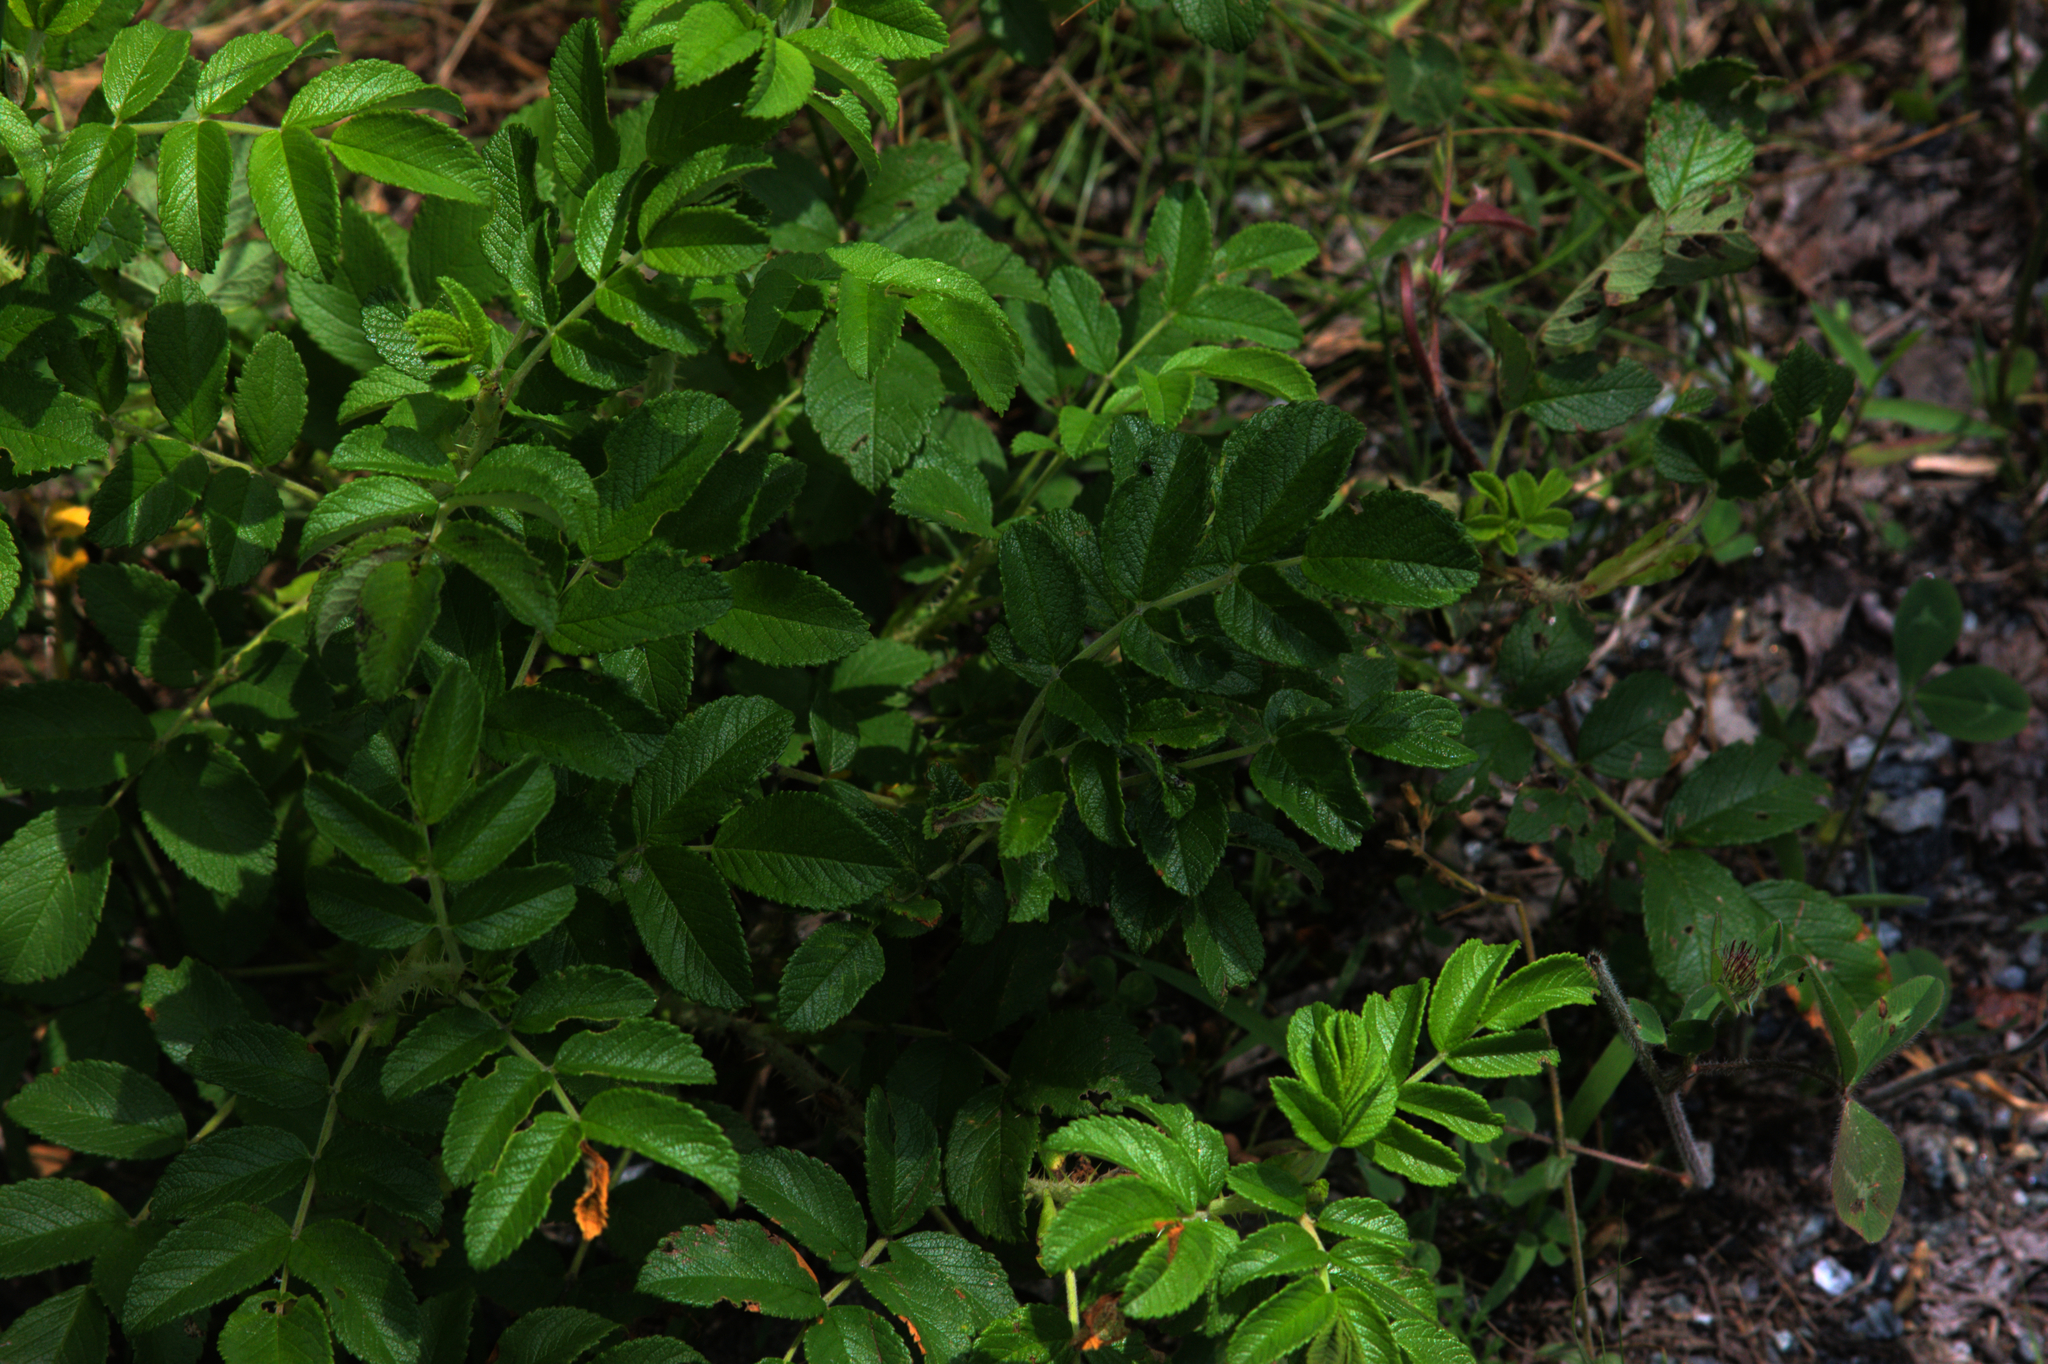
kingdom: Plantae
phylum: Tracheophyta
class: Magnoliopsida
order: Rosales
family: Rosaceae
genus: Rosa
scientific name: Rosa rugosa
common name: Japanese rose
